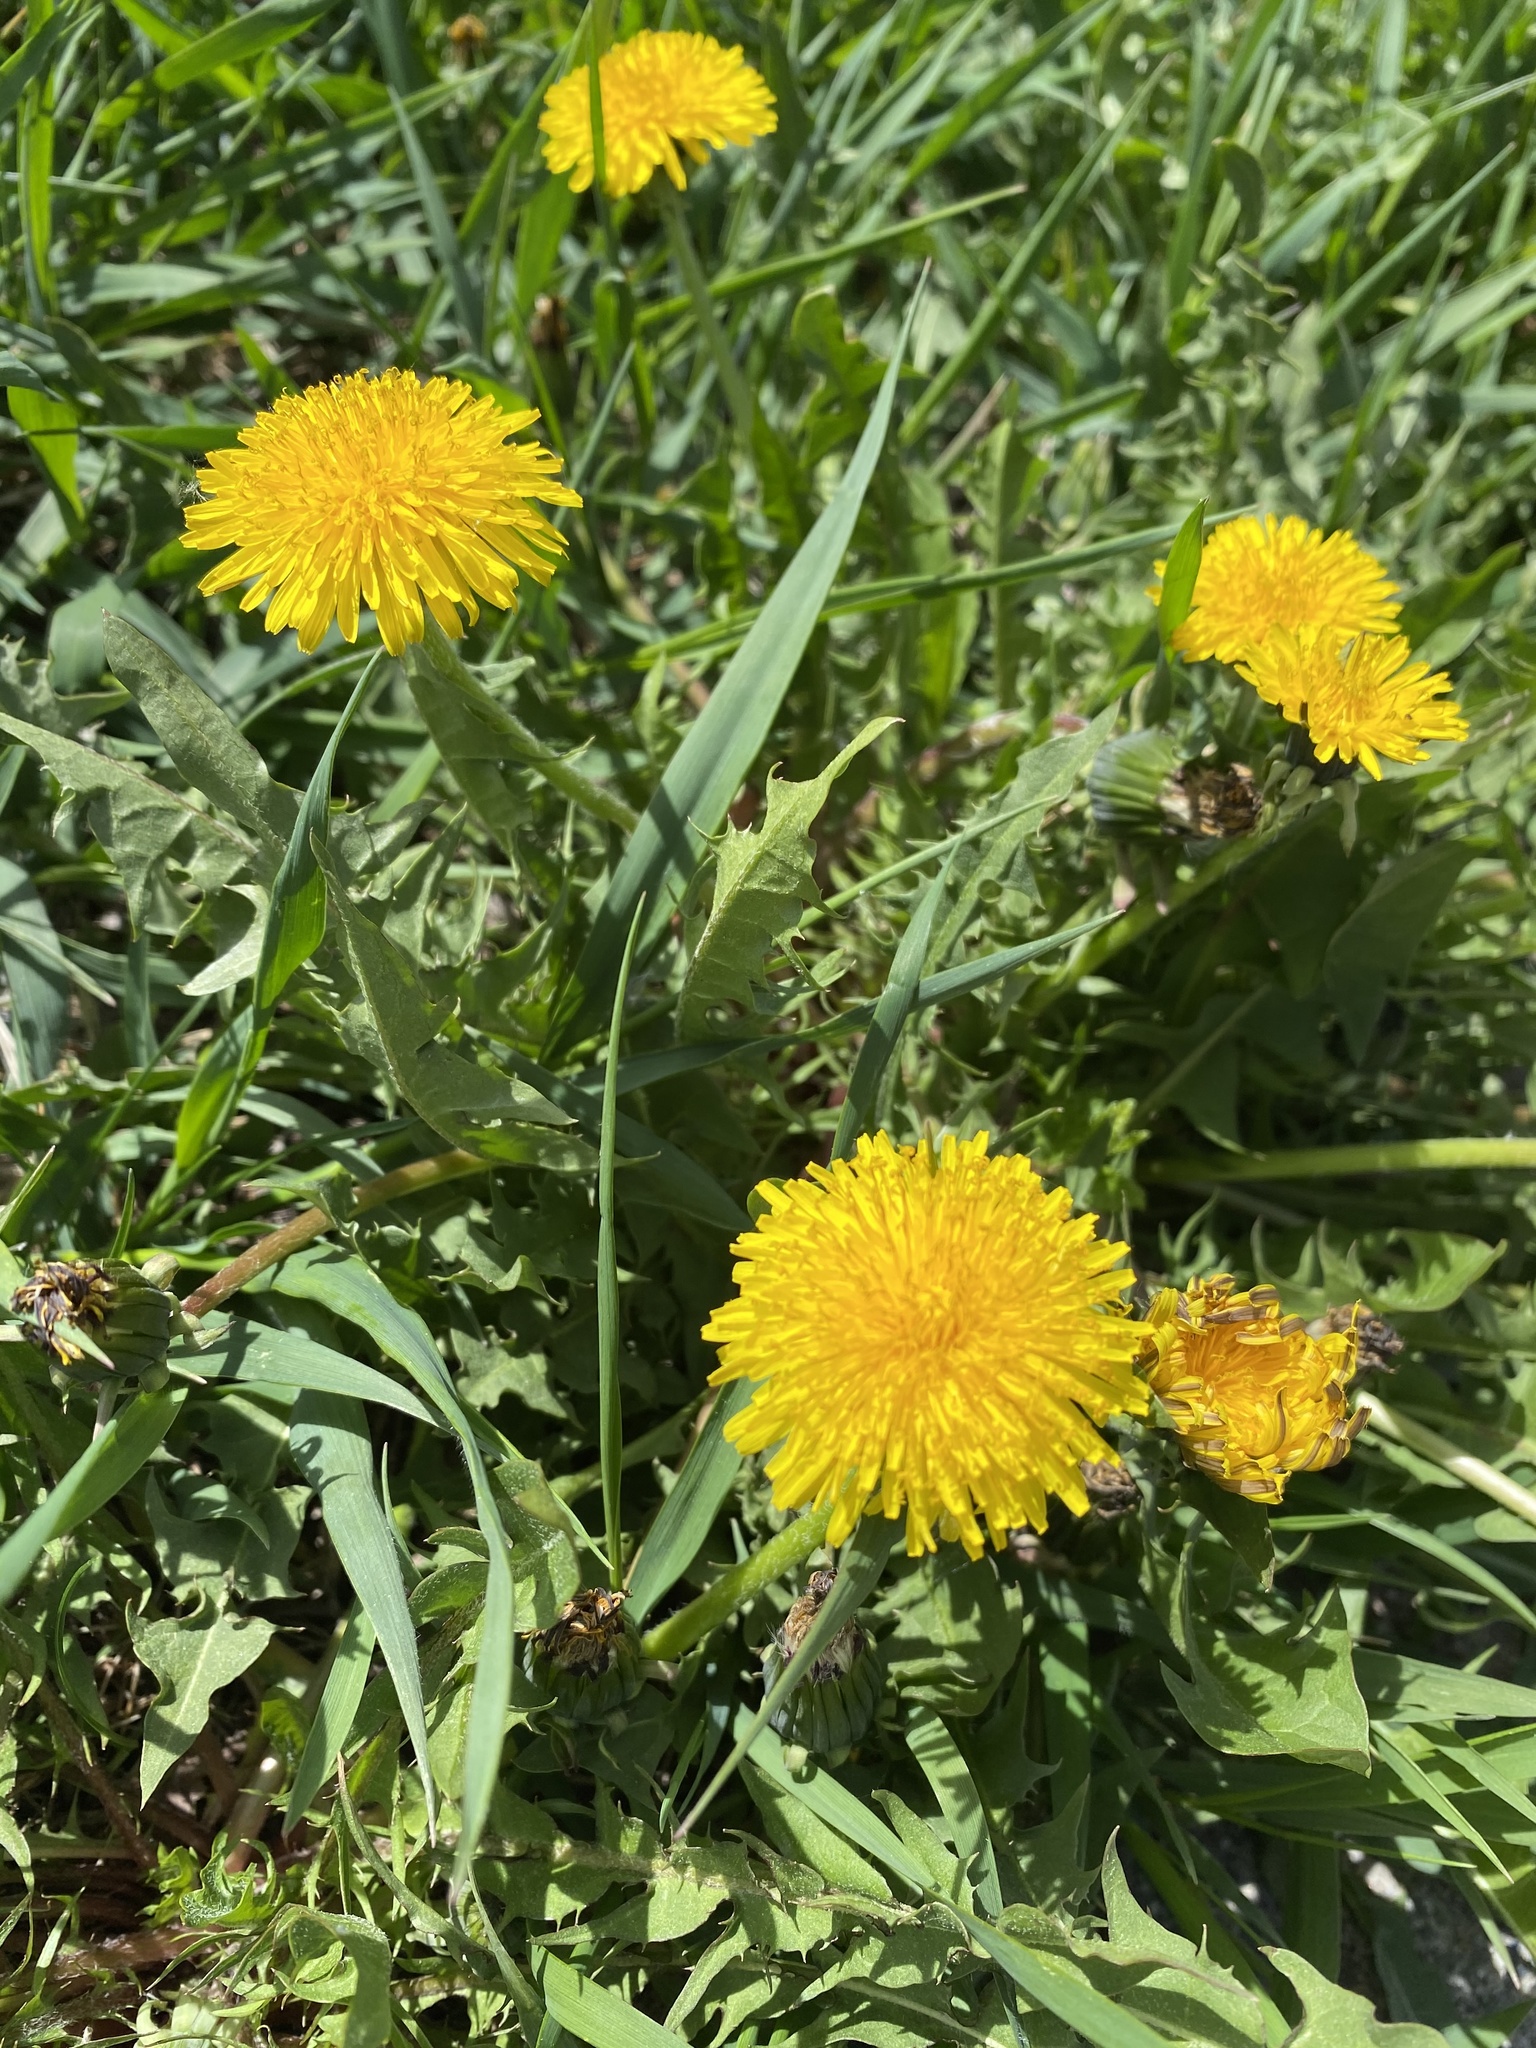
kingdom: Plantae
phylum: Tracheophyta
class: Magnoliopsida
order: Asterales
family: Asteraceae
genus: Taraxacum
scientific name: Taraxacum officinale
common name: Common dandelion
